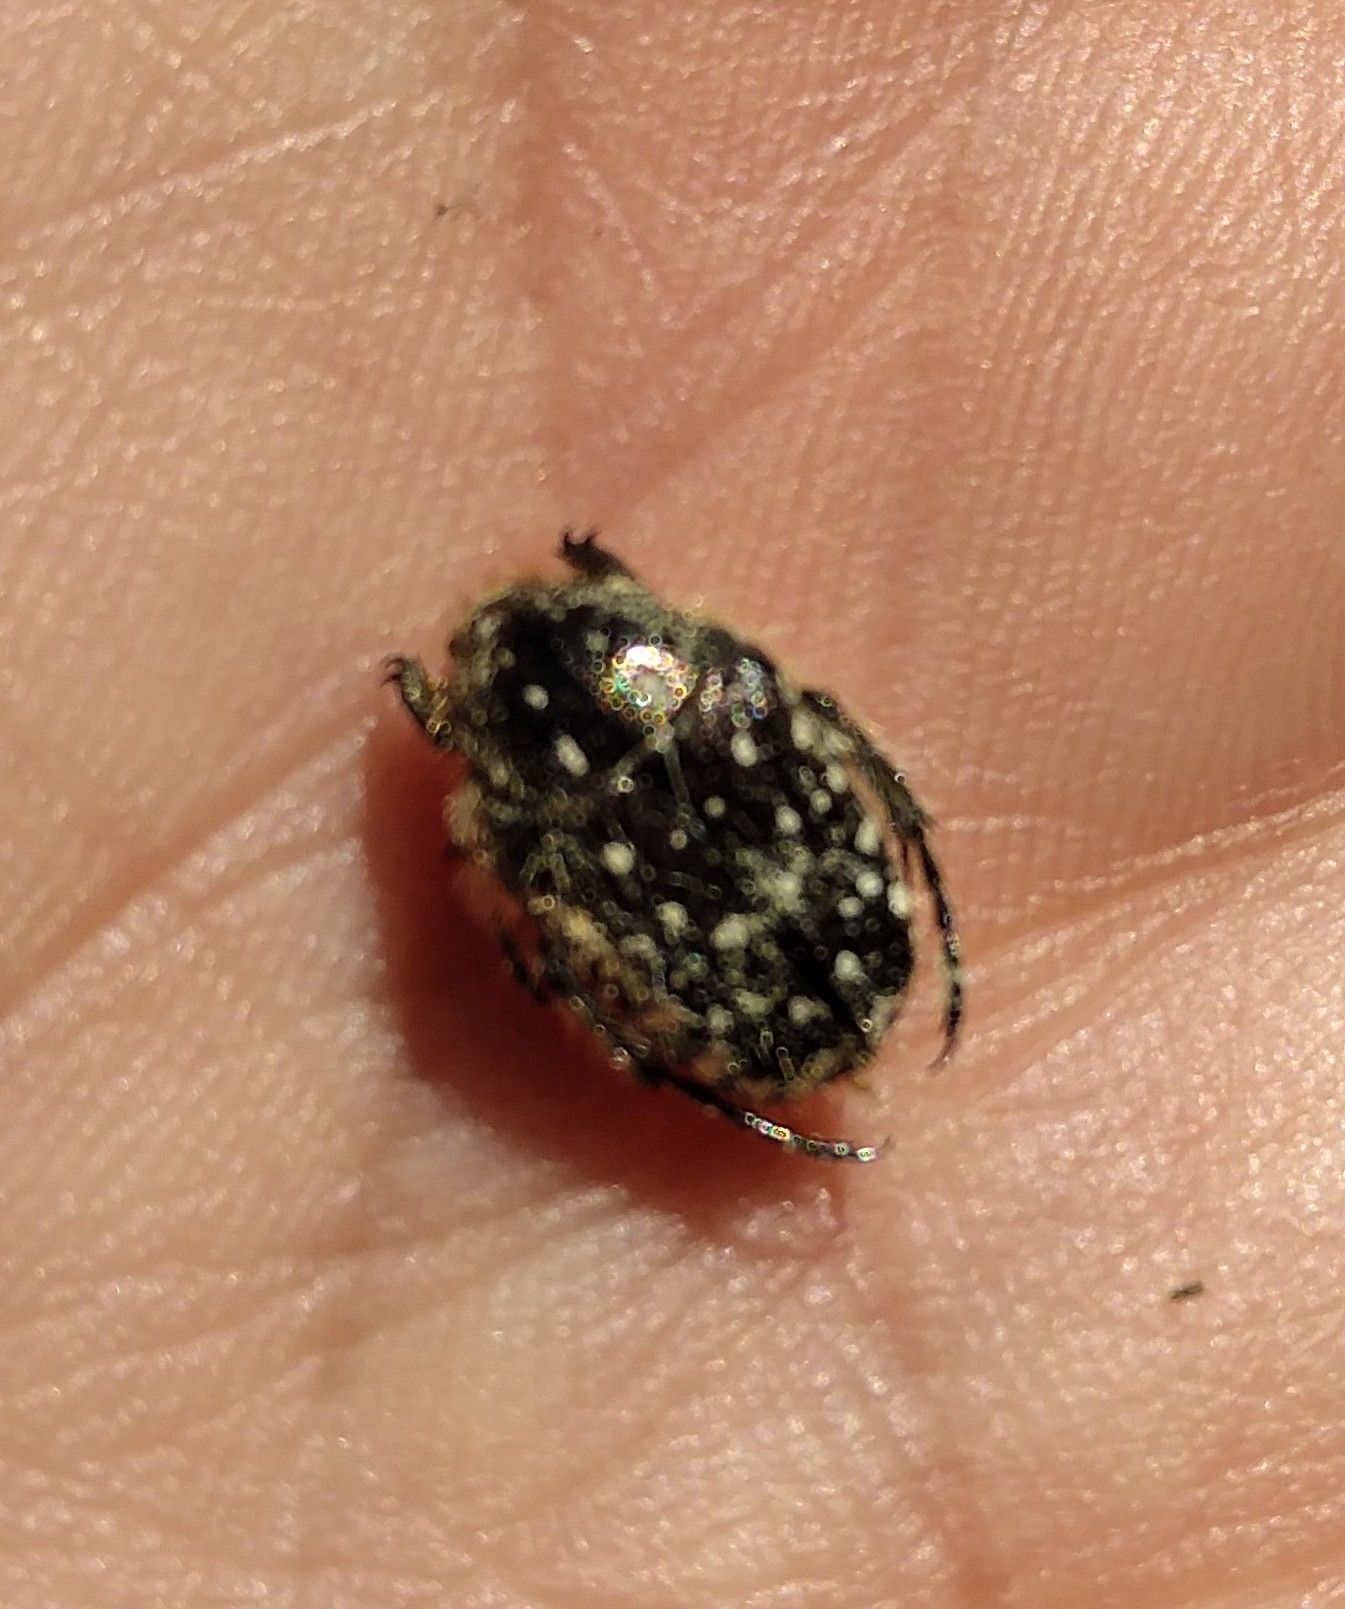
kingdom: Animalia
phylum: Arthropoda
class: Insecta
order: Coleoptera
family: Scarabaeidae
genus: Oxythyrea
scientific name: Oxythyrea funesta
